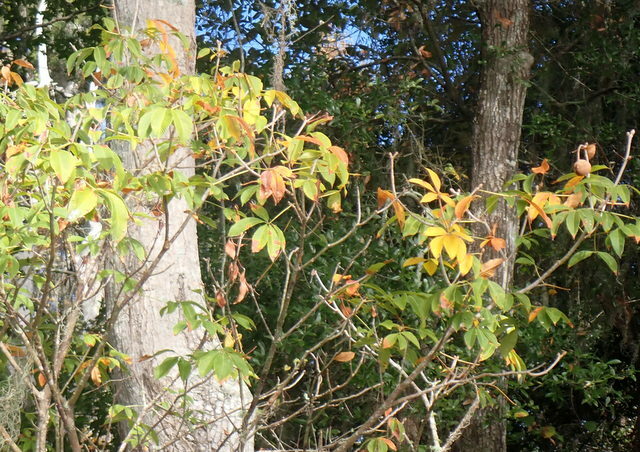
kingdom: Plantae
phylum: Tracheophyta
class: Magnoliopsida
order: Sapindales
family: Sapindaceae
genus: Aesculus
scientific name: Aesculus pavia
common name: Red buckeye
